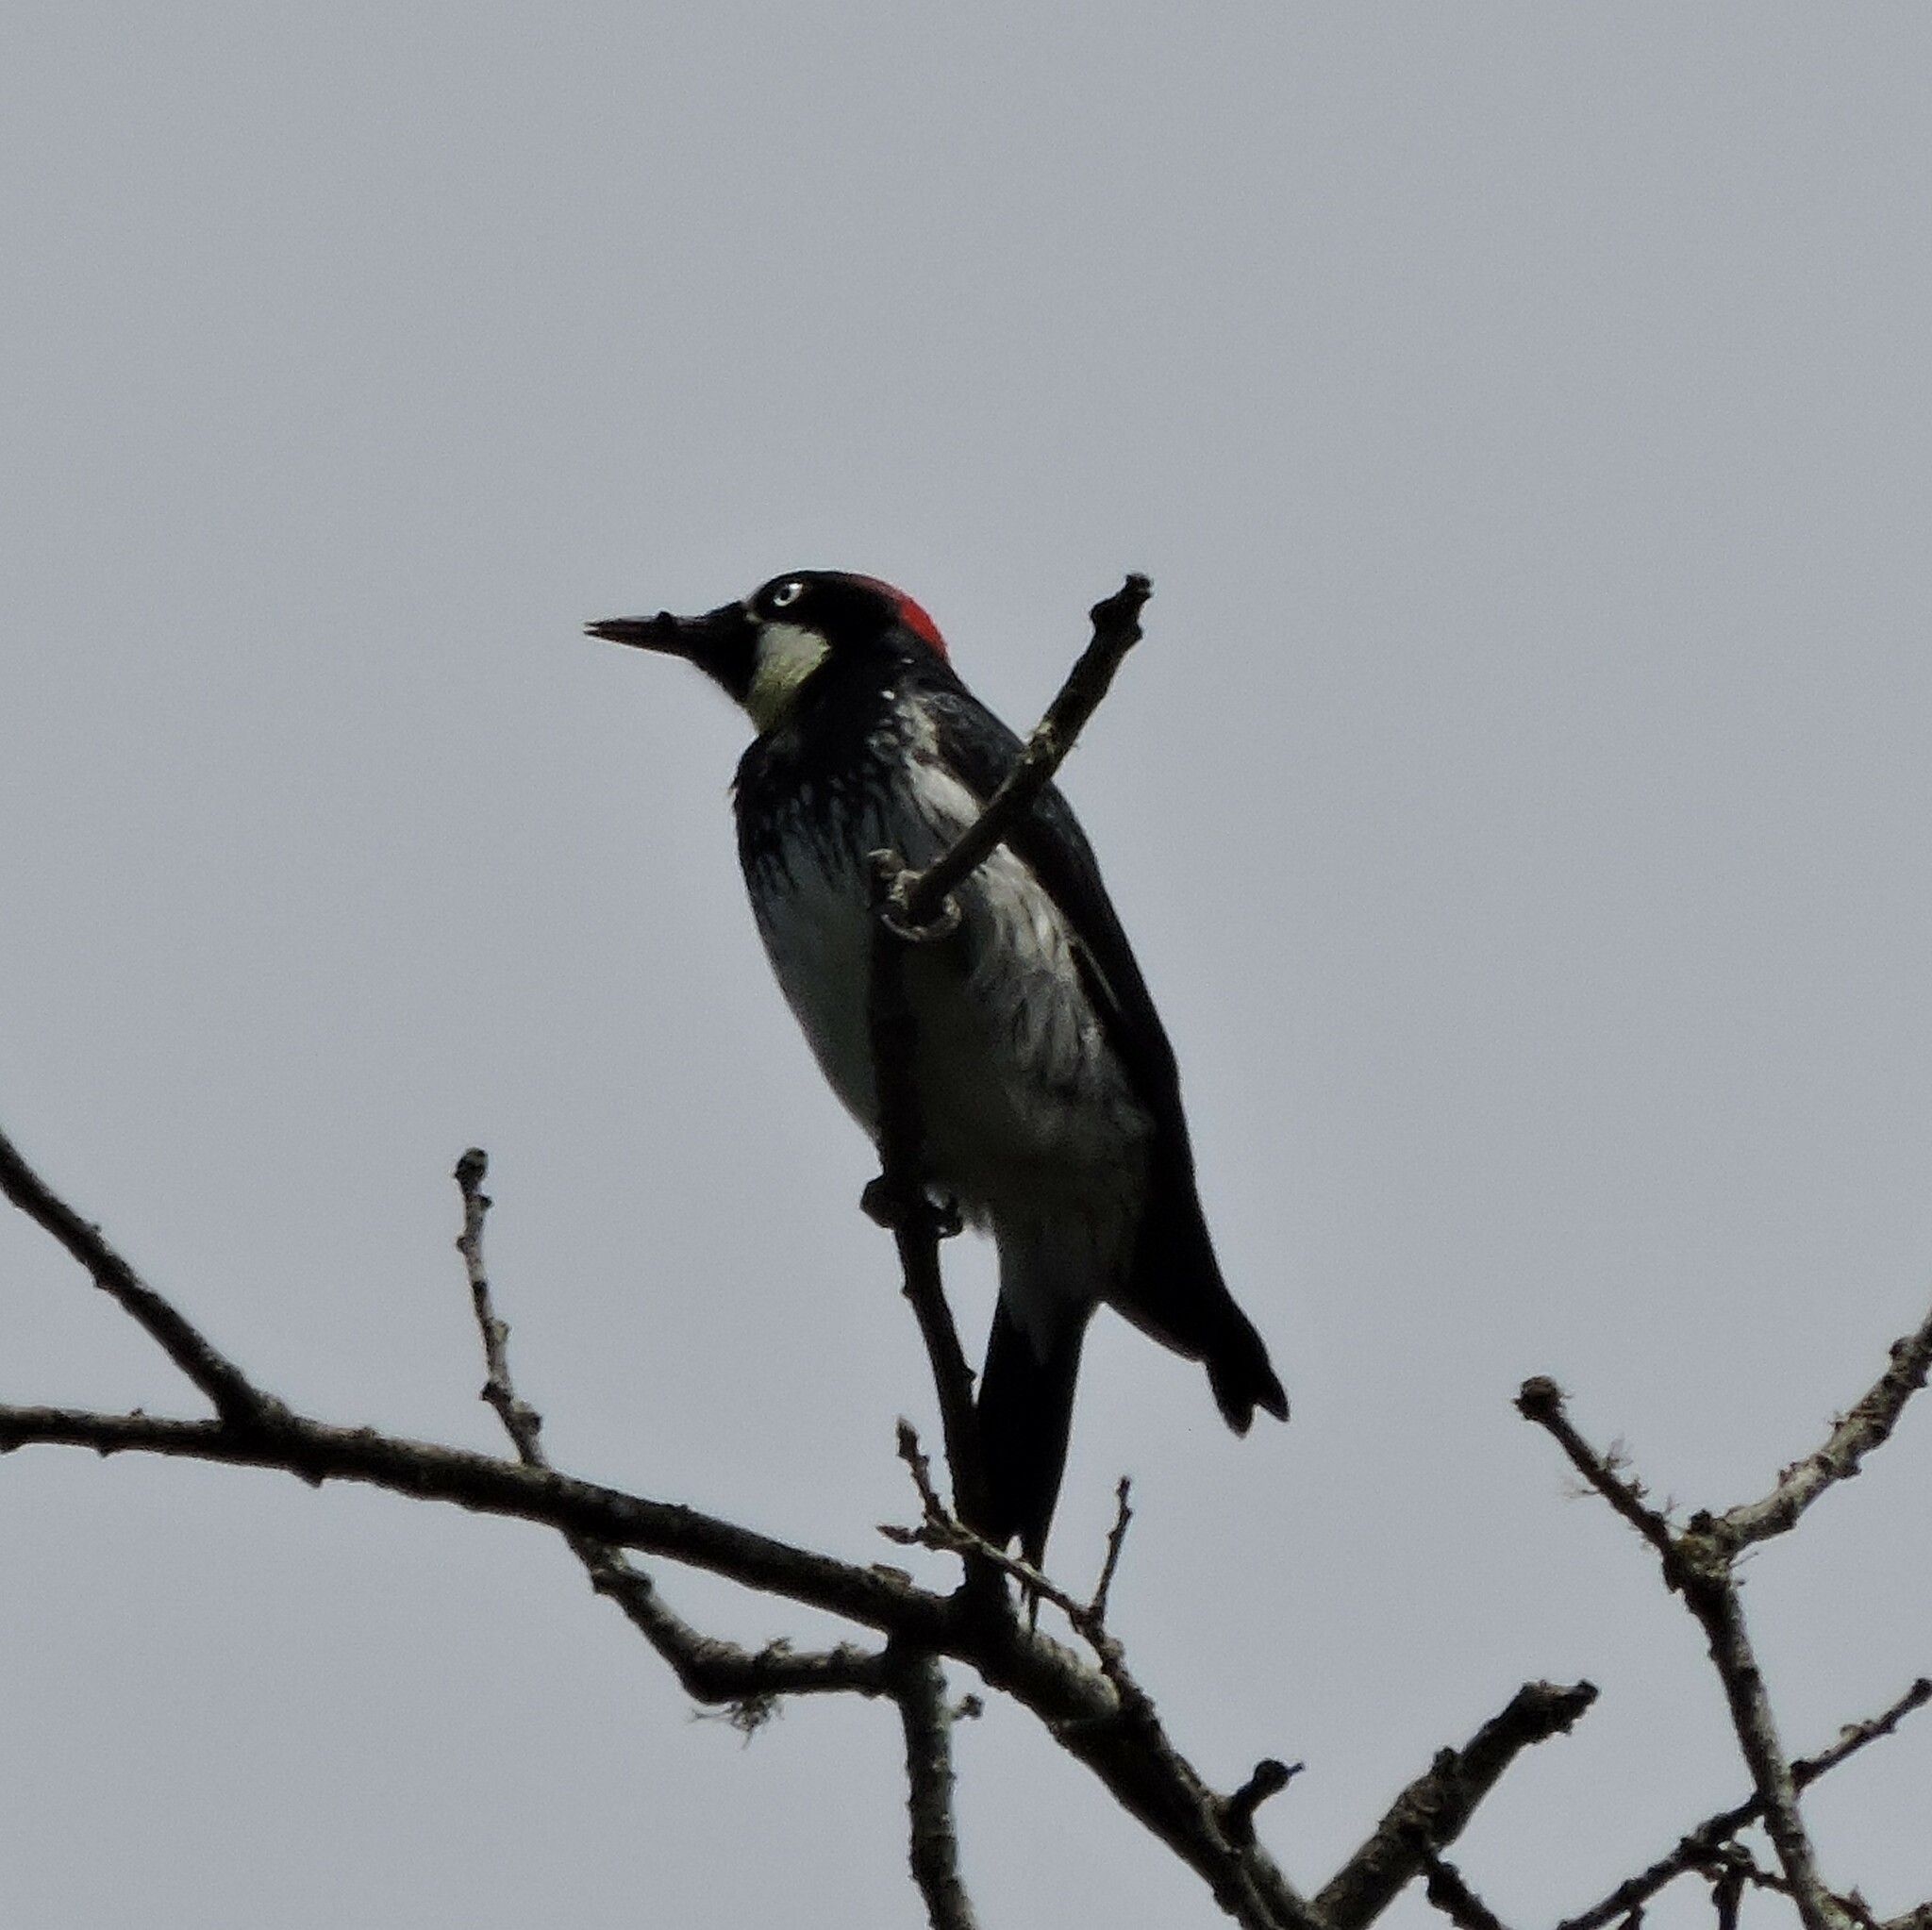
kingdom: Animalia
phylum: Chordata
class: Aves
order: Piciformes
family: Picidae
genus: Melanerpes
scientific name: Melanerpes formicivorus
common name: Acorn woodpecker
